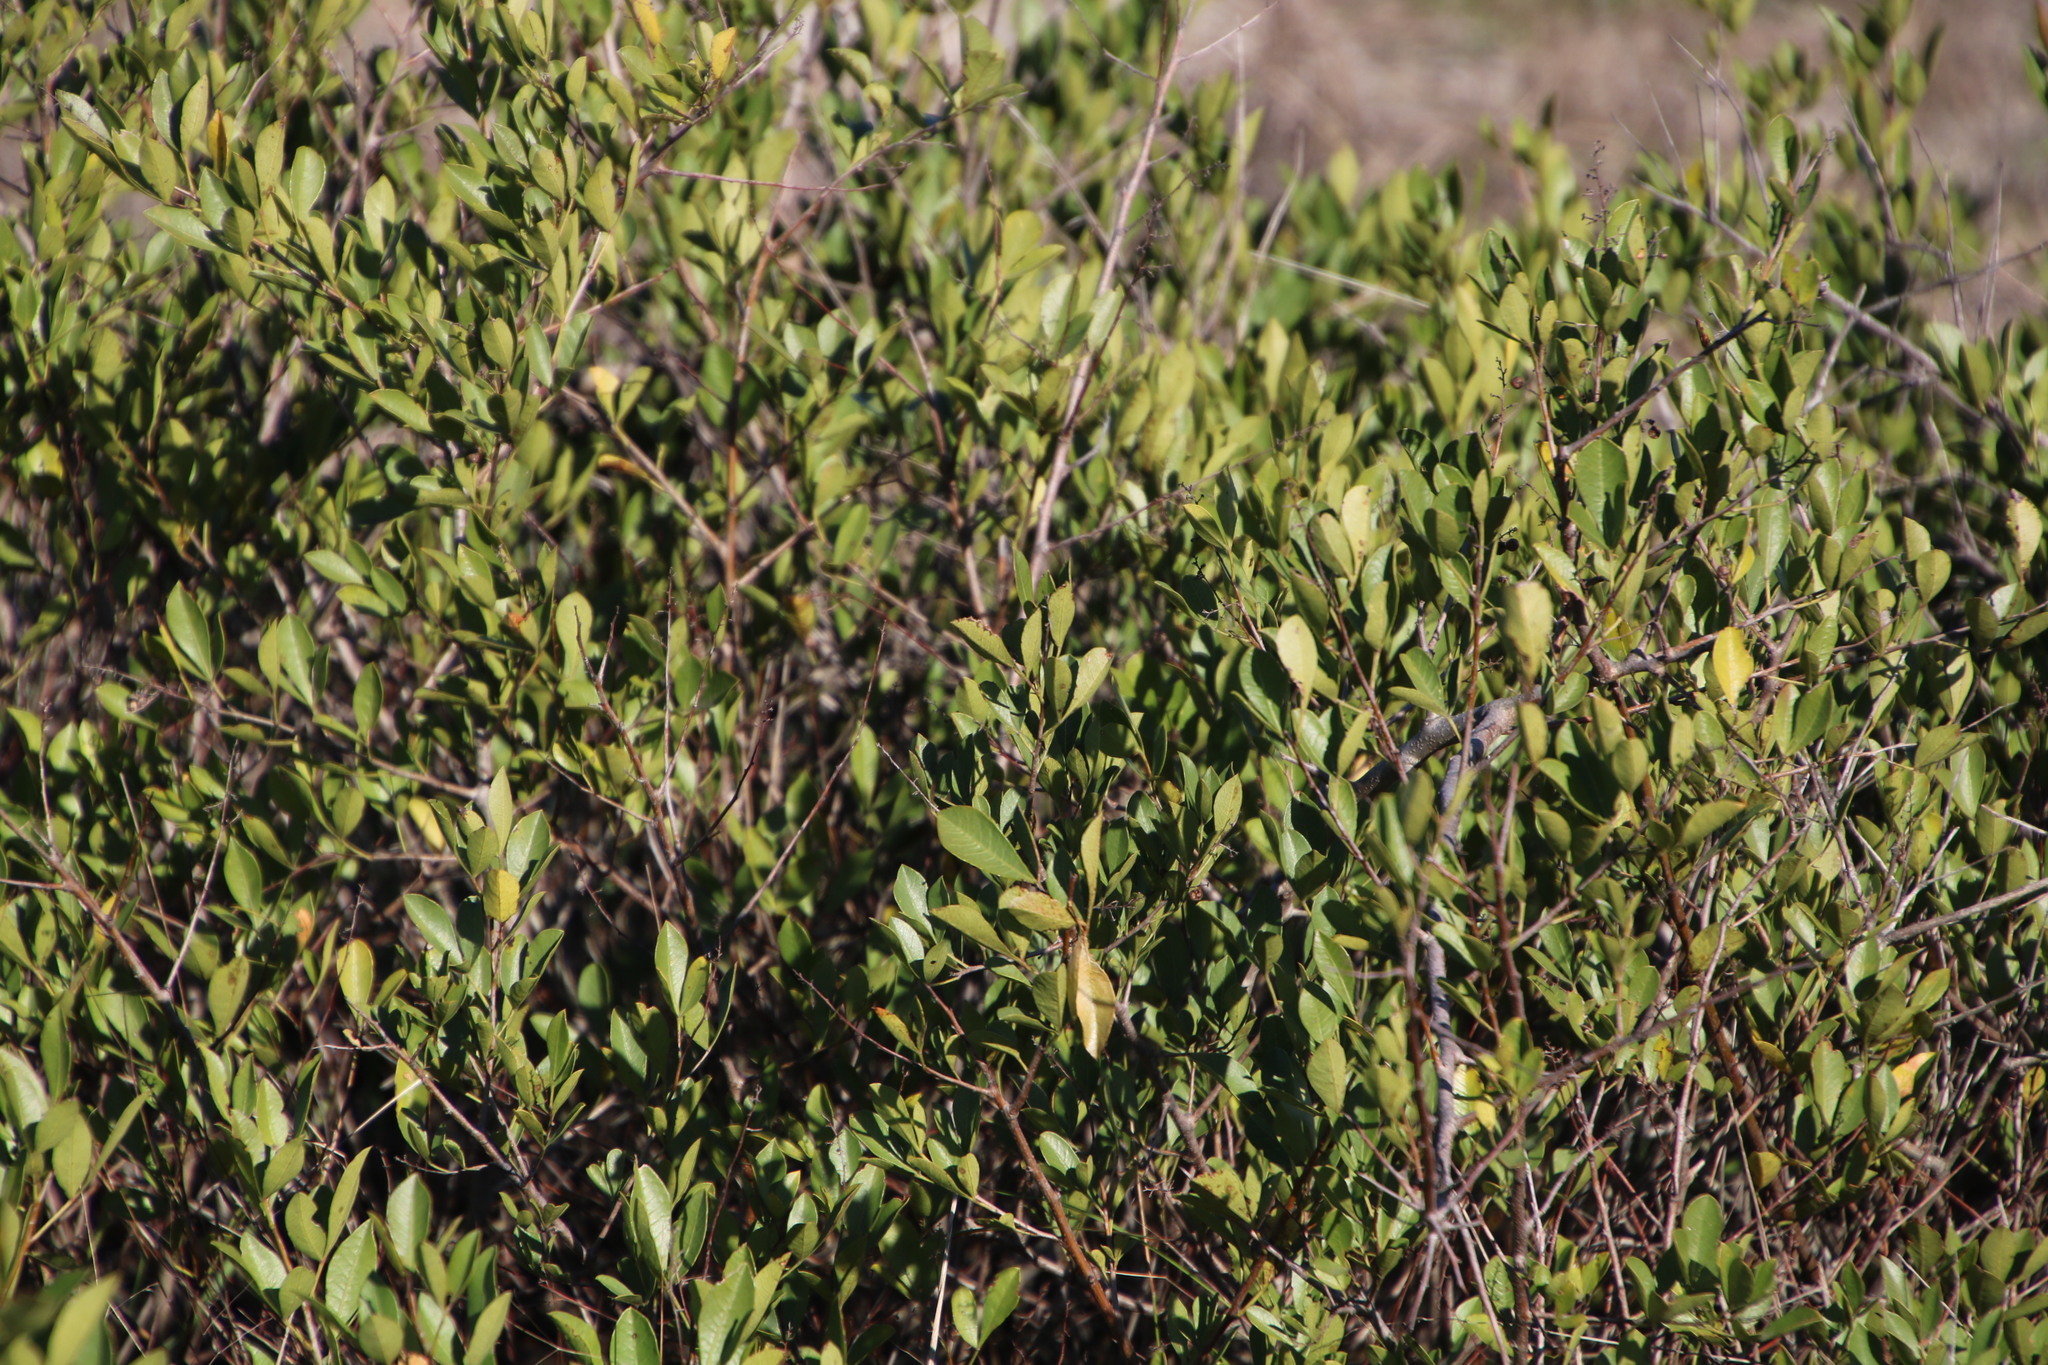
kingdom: Plantae
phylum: Tracheophyta
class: Magnoliopsida
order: Sapindales
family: Anacardiaceae
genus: Searsia
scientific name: Searsia laevigata
